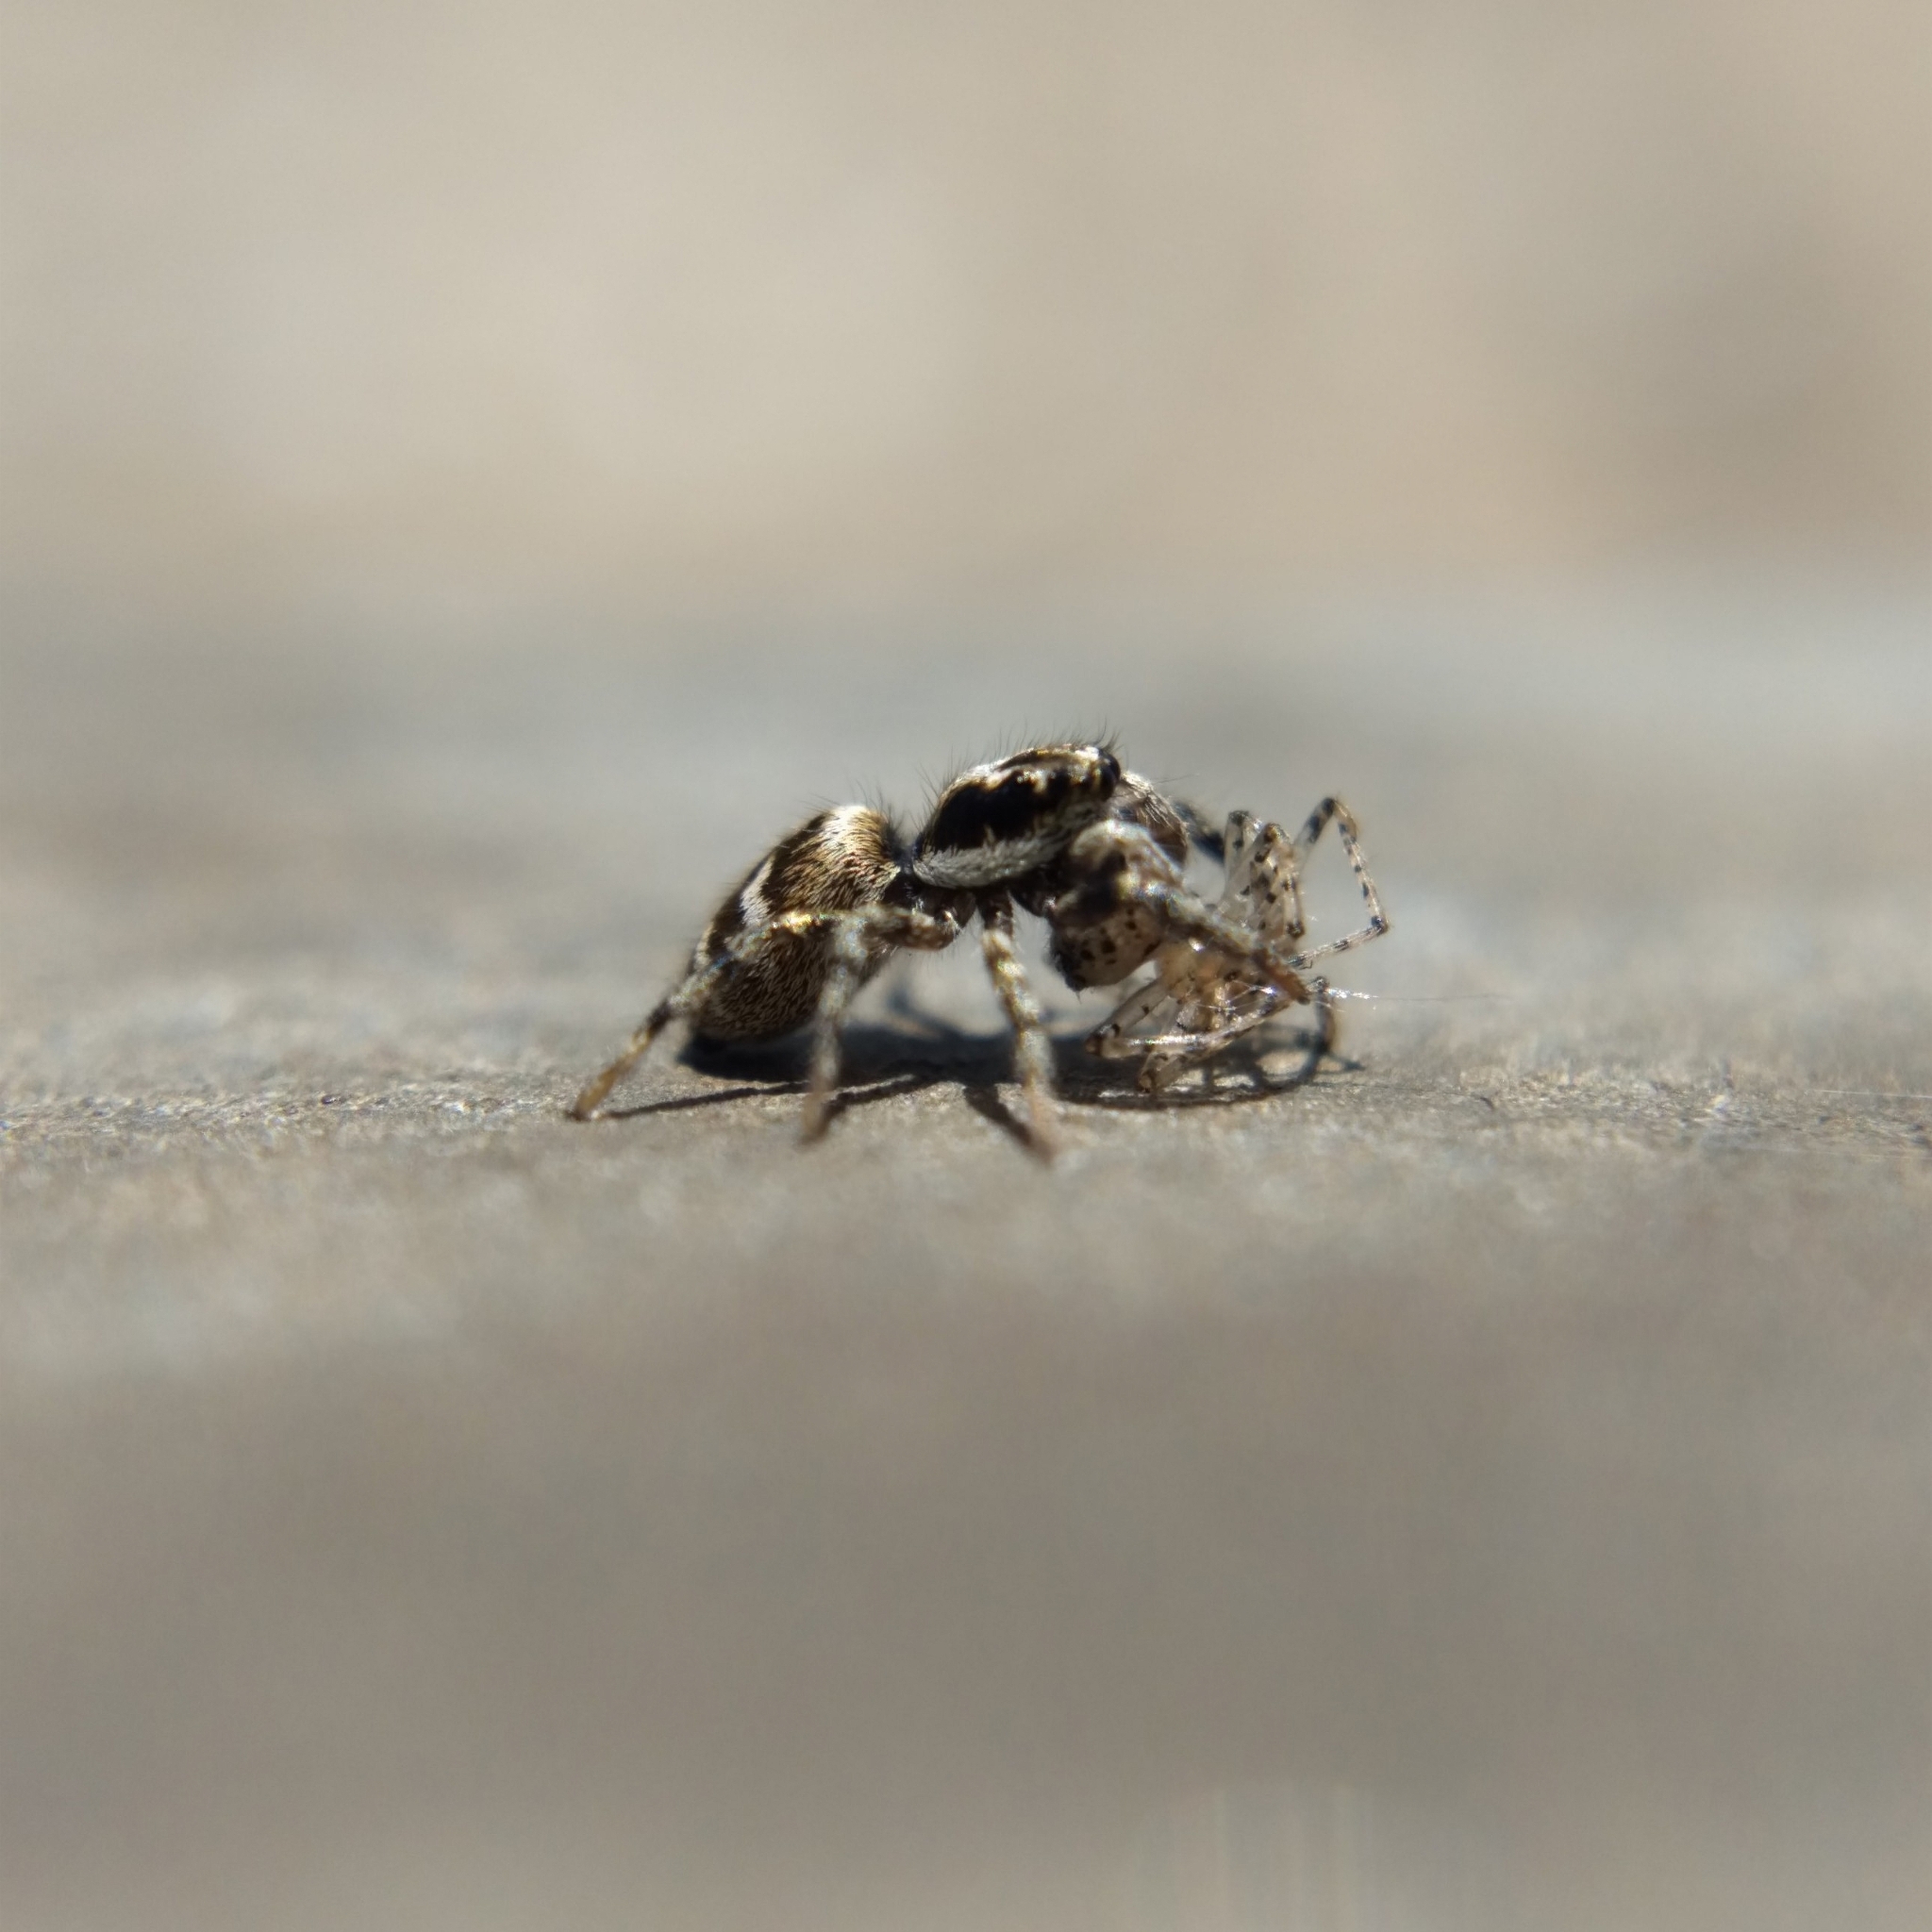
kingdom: Animalia
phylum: Arthropoda
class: Arachnida
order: Araneae
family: Salticidae
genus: Salticus
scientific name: Salticus scenicus
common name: Zebra jumper
